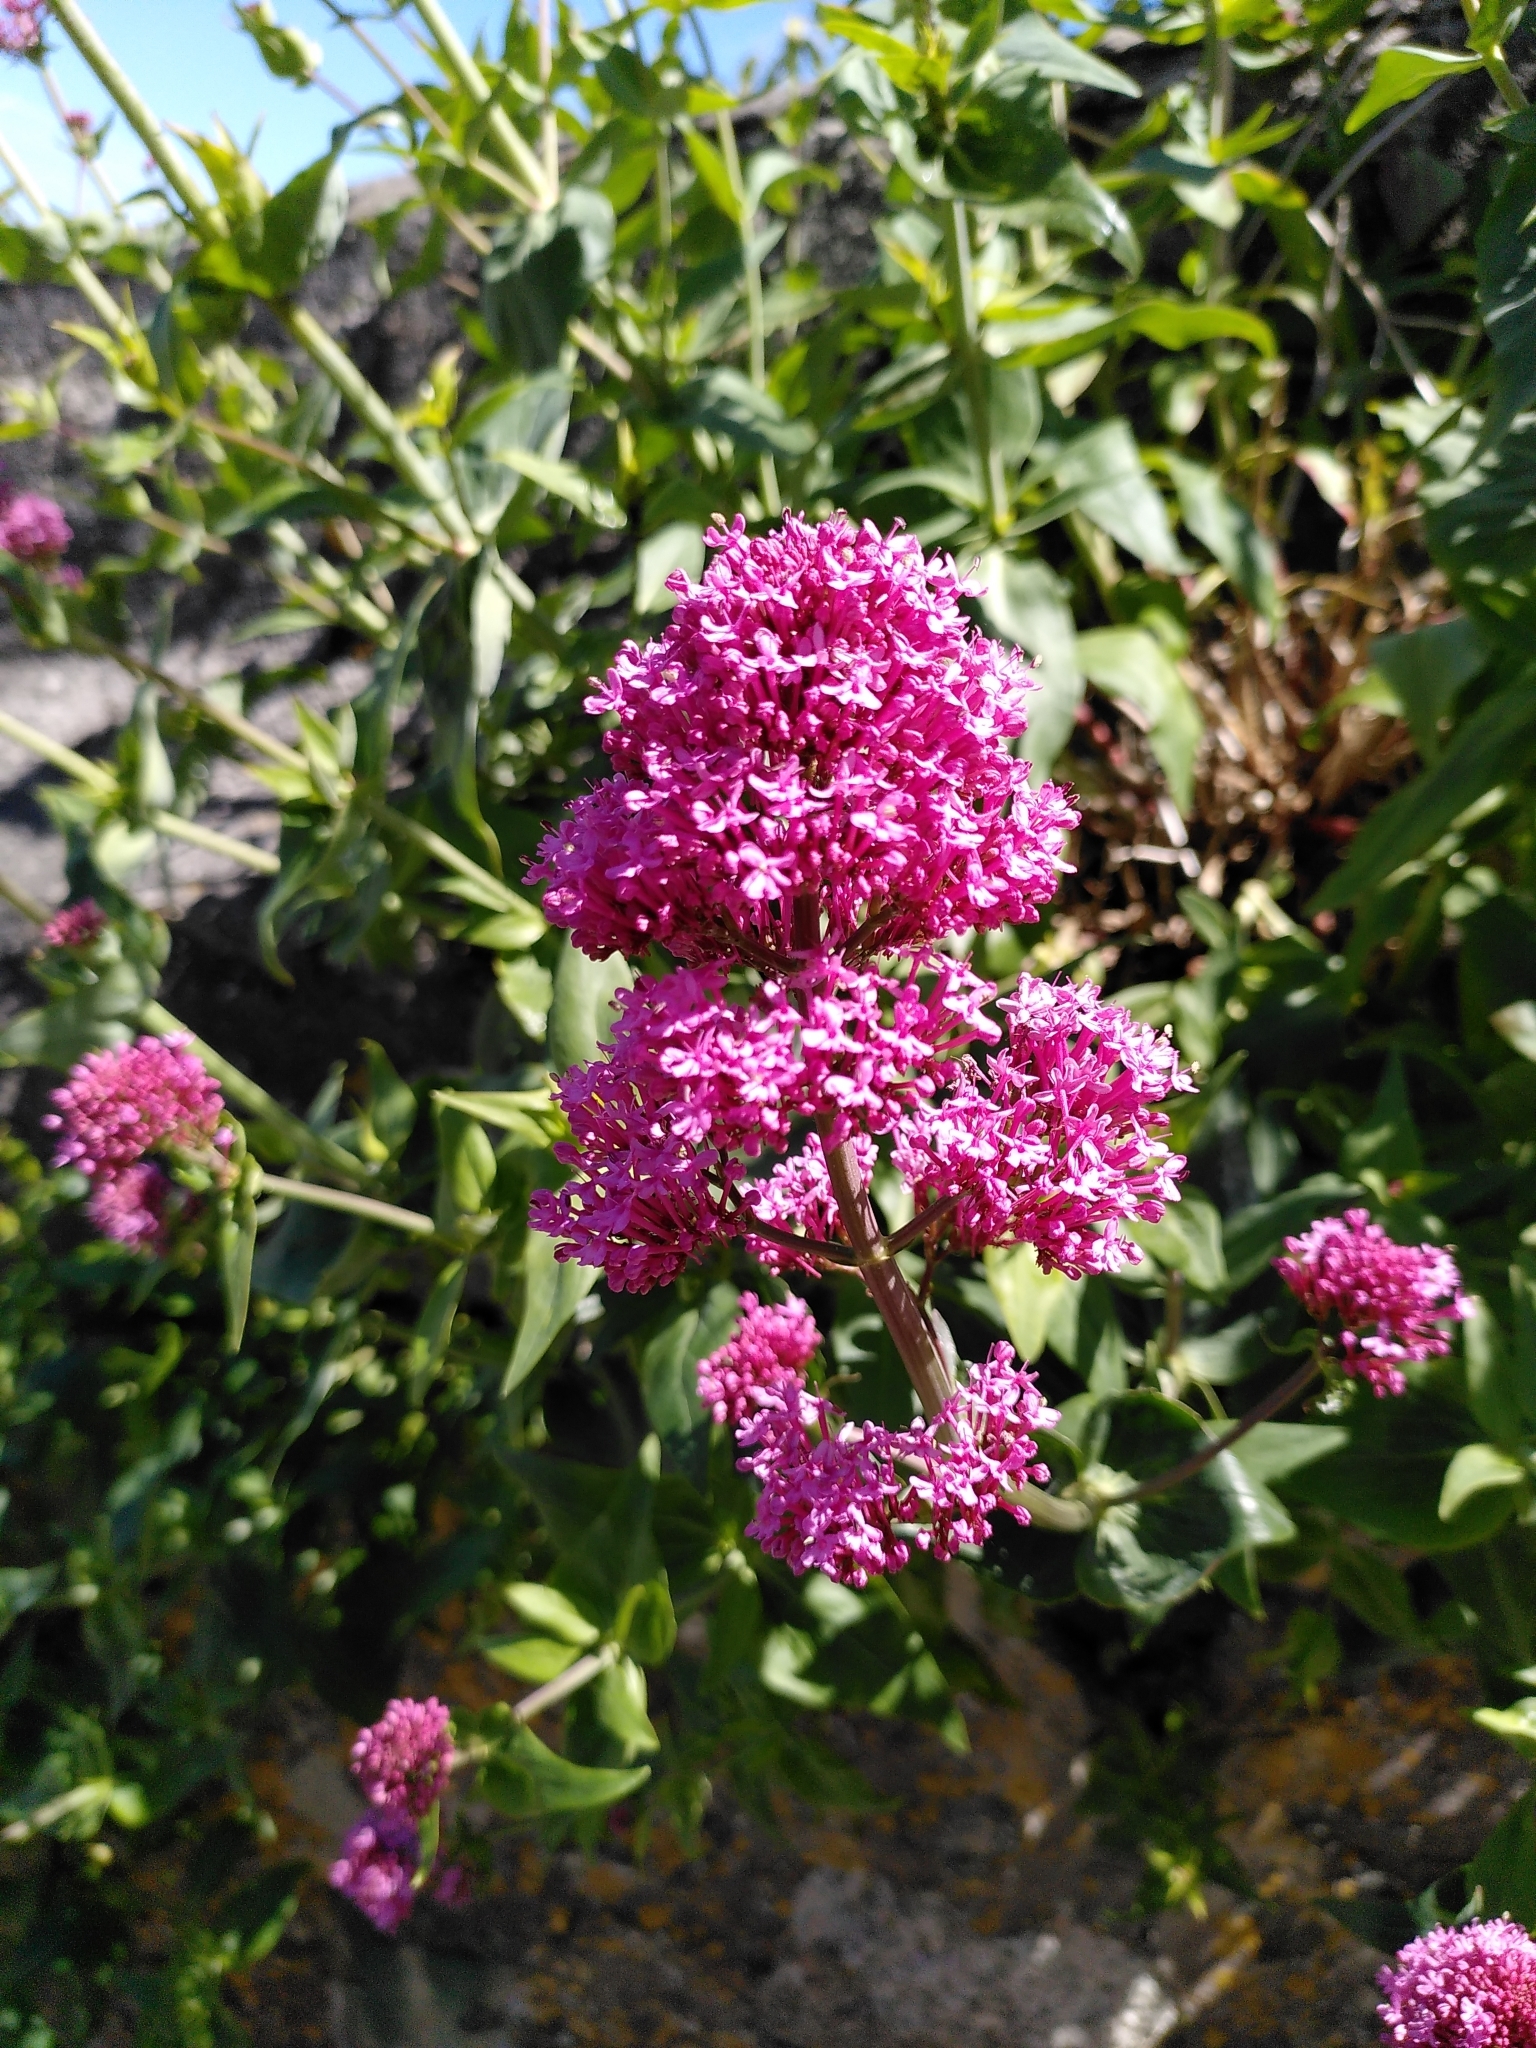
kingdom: Plantae
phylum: Tracheophyta
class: Magnoliopsida
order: Dipsacales
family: Caprifoliaceae
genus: Centranthus
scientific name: Centranthus ruber
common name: Red valerian
